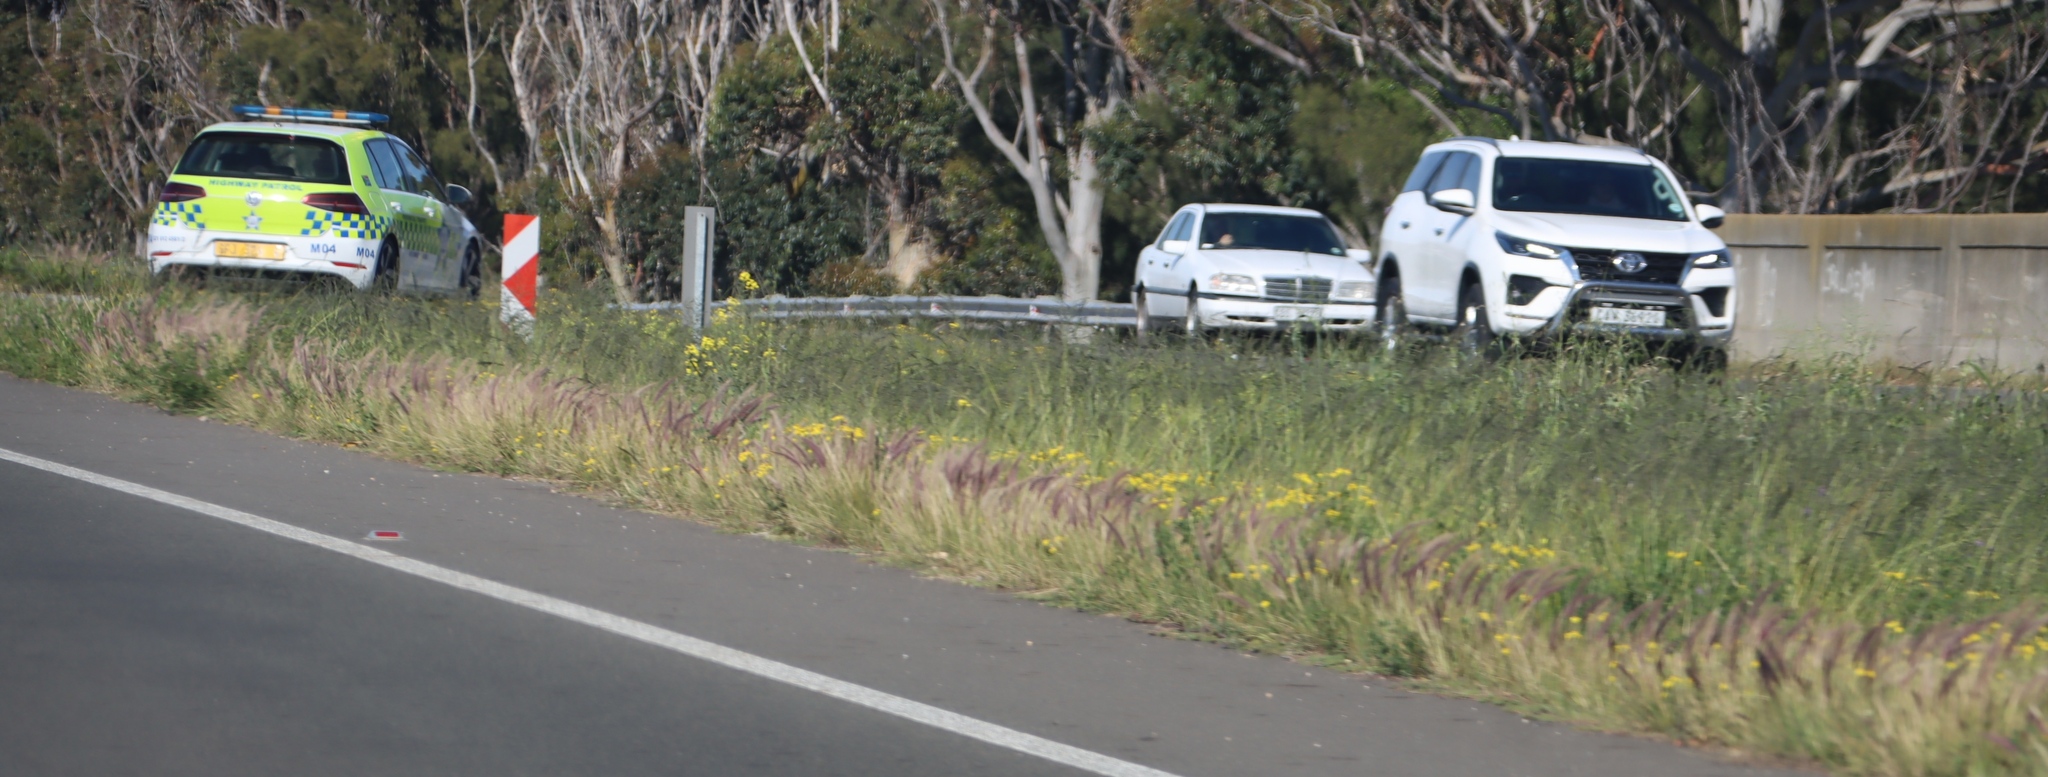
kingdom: Plantae
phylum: Tracheophyta
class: Liliopsida
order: Poales
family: Poaceae
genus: Cenchrus
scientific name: Cenchrus setaceus
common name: Crimson fountaingrass
